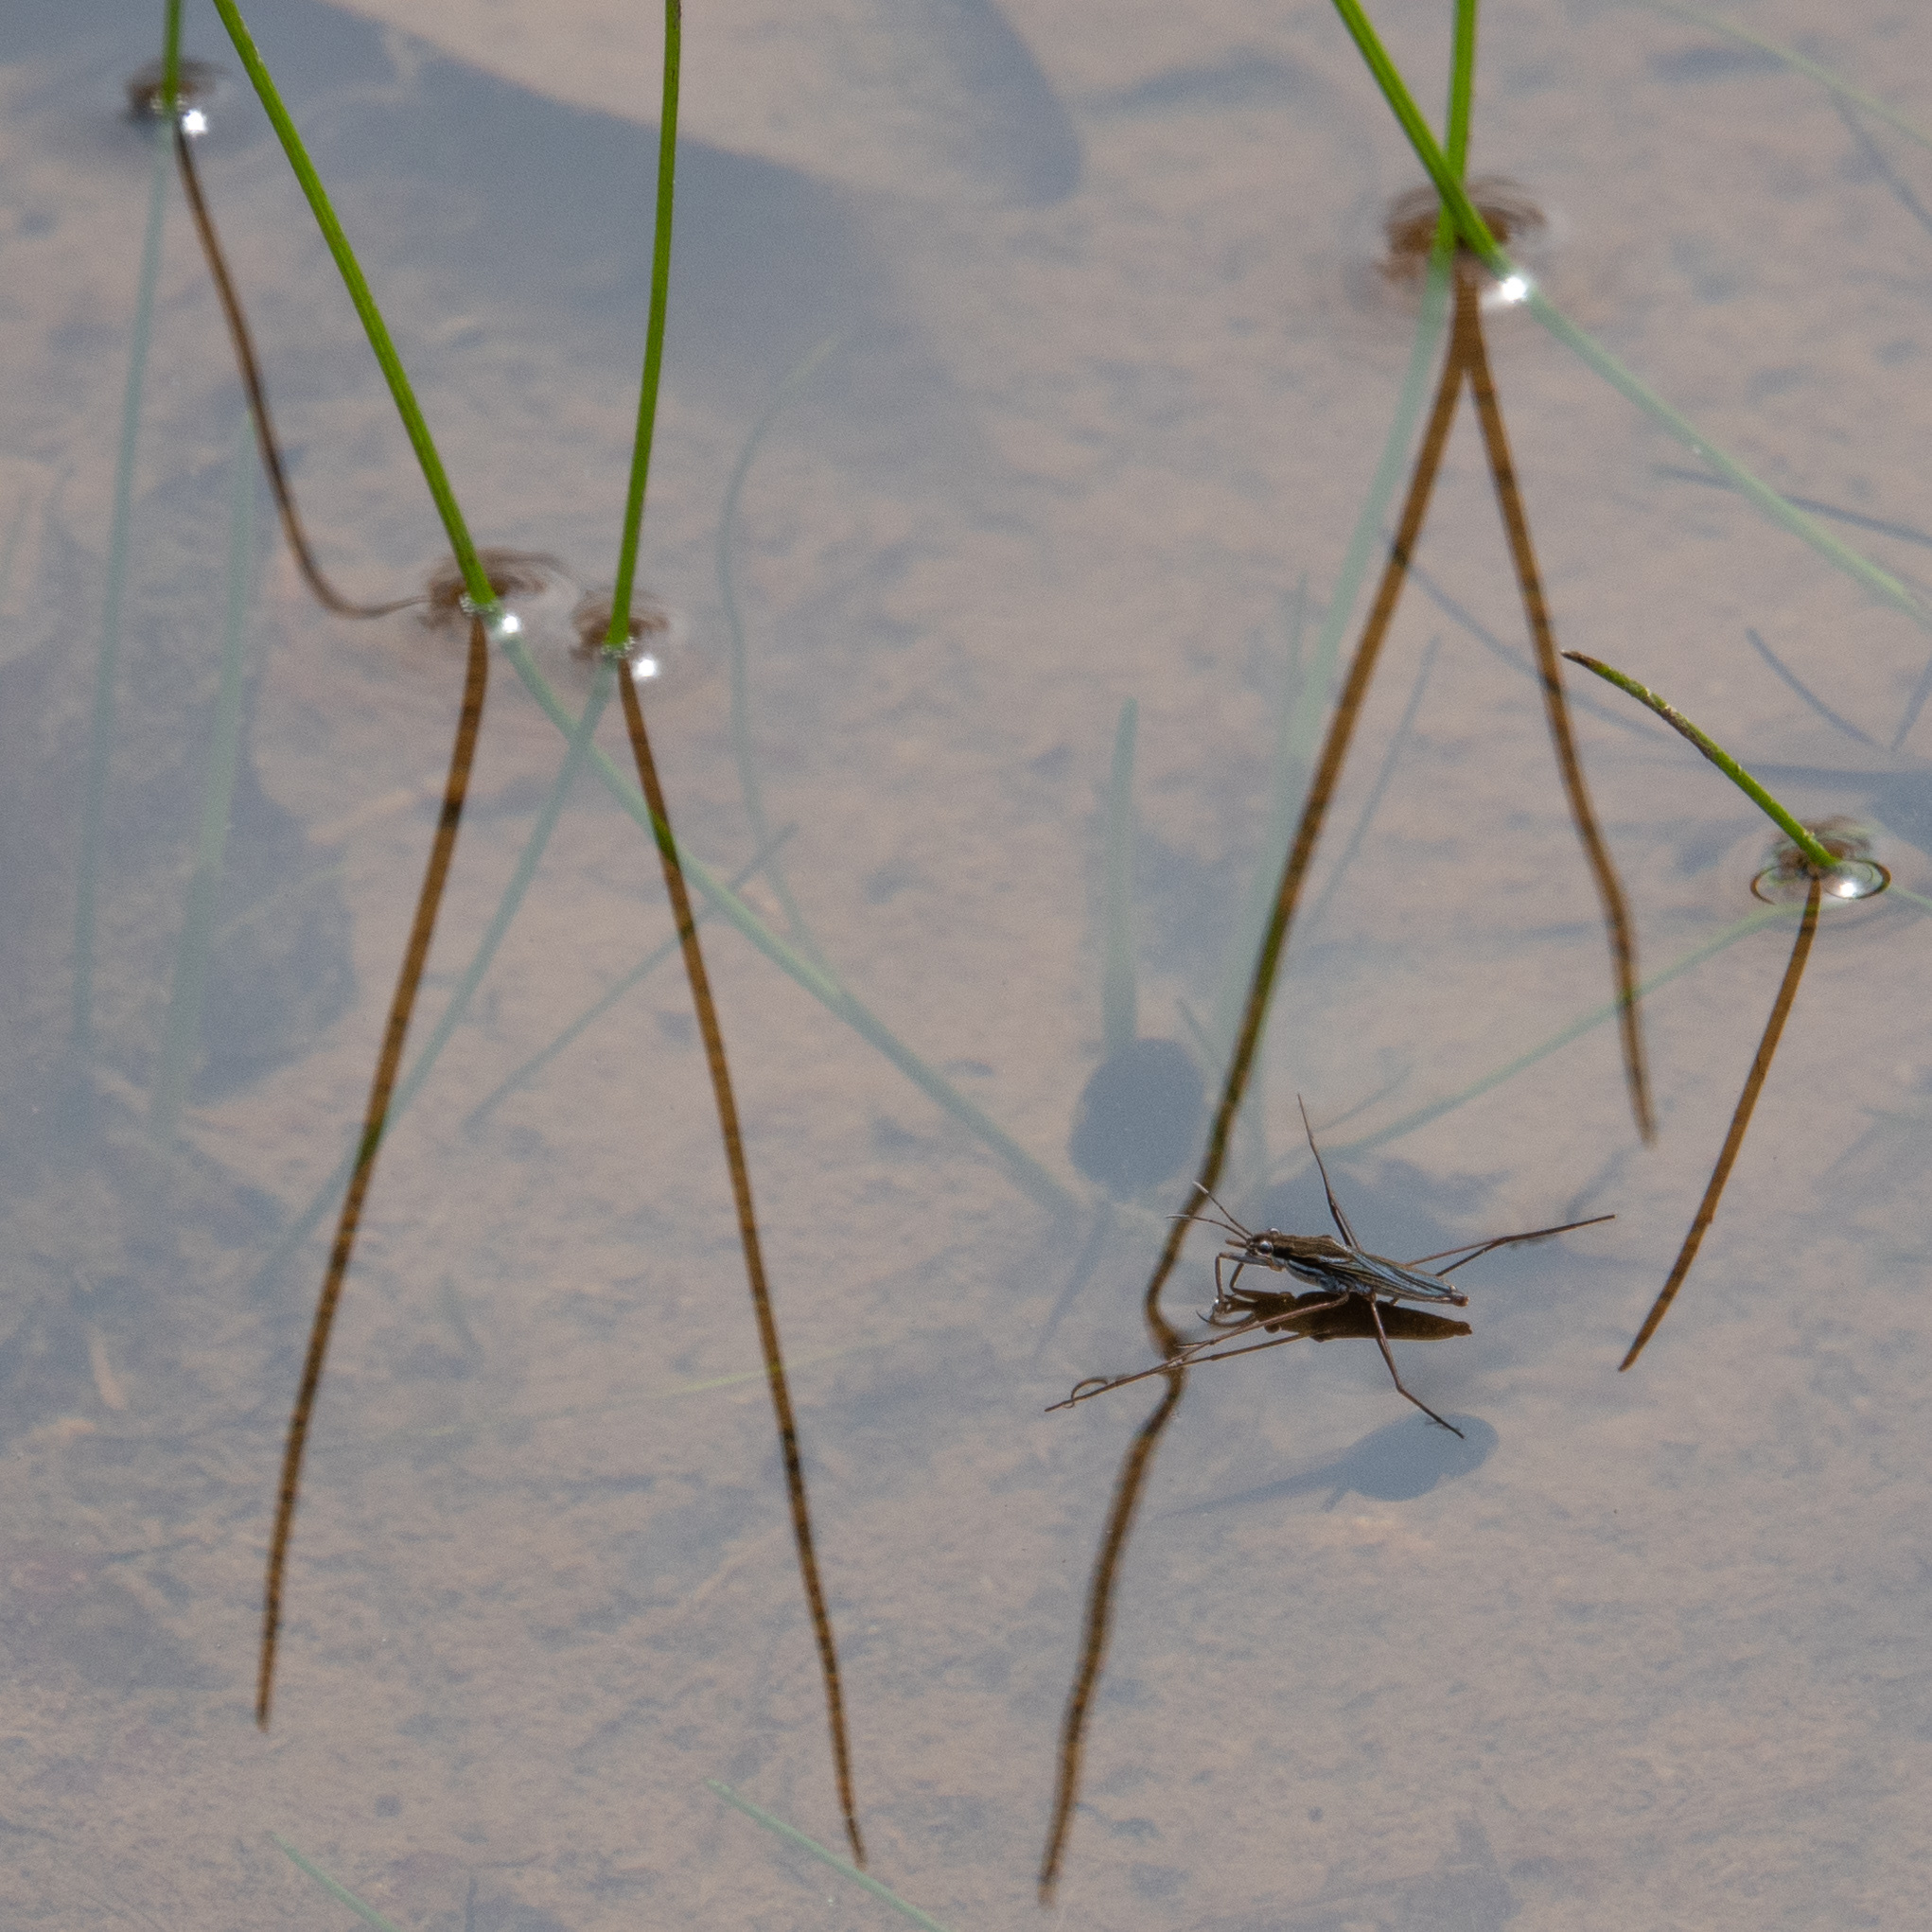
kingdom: Animalia
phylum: Arthropoda
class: Insecta
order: Hemiptera
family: Gerridae
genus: Gerris
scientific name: Gerris
